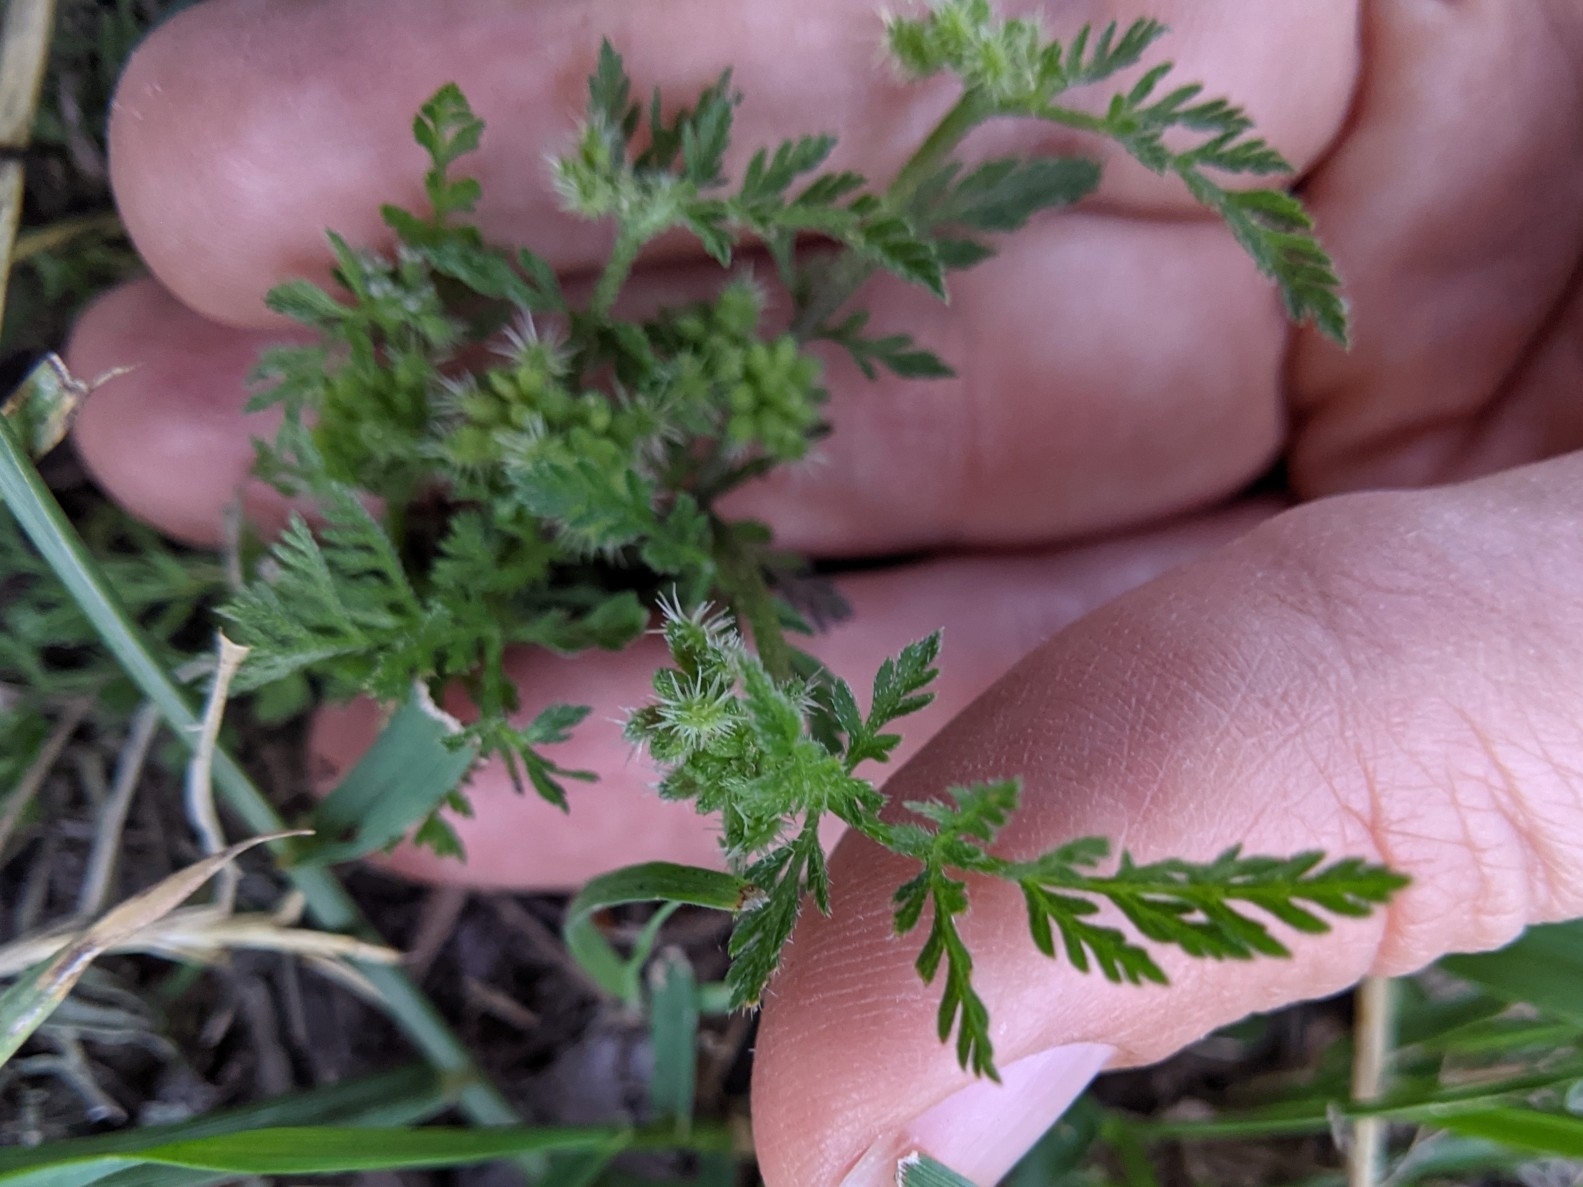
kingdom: Plantae
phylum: Tracheophyta
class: Magnoliopsida
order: Apiales
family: Apiaceae
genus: Torilis
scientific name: Torilis nodosa
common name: Knotted hedge-parsley
